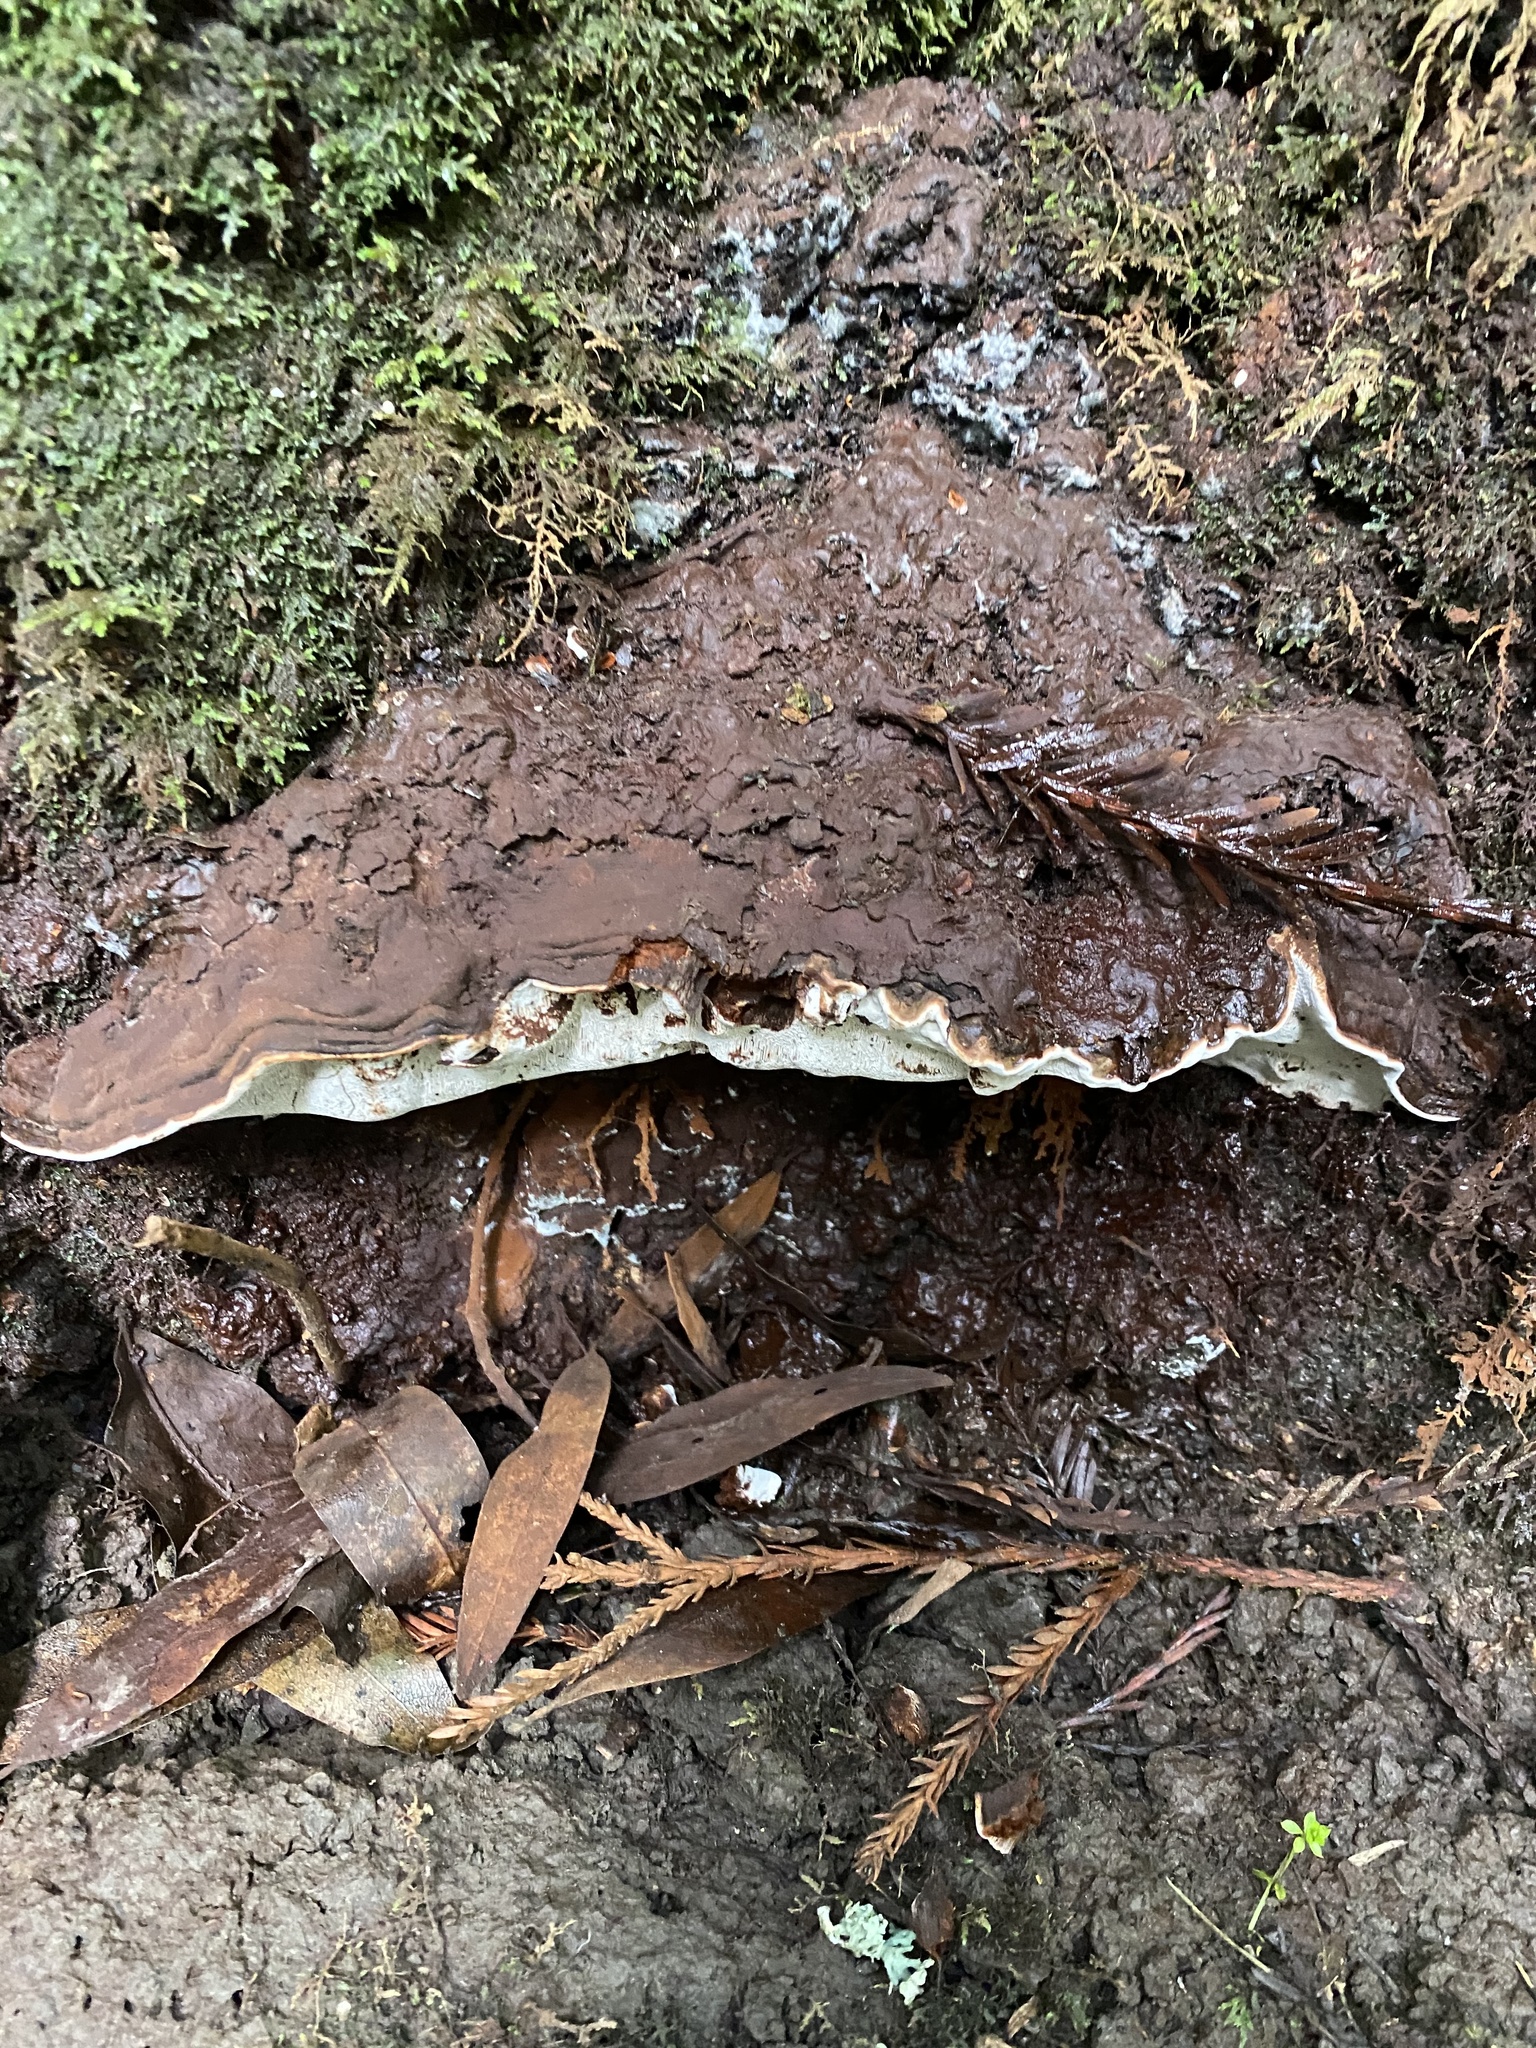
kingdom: Fungi
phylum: Basidiomycota
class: Agaricomycetes
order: Polyporales
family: Polyporaceae
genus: Ganoderma
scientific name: Ganoderma brownii
